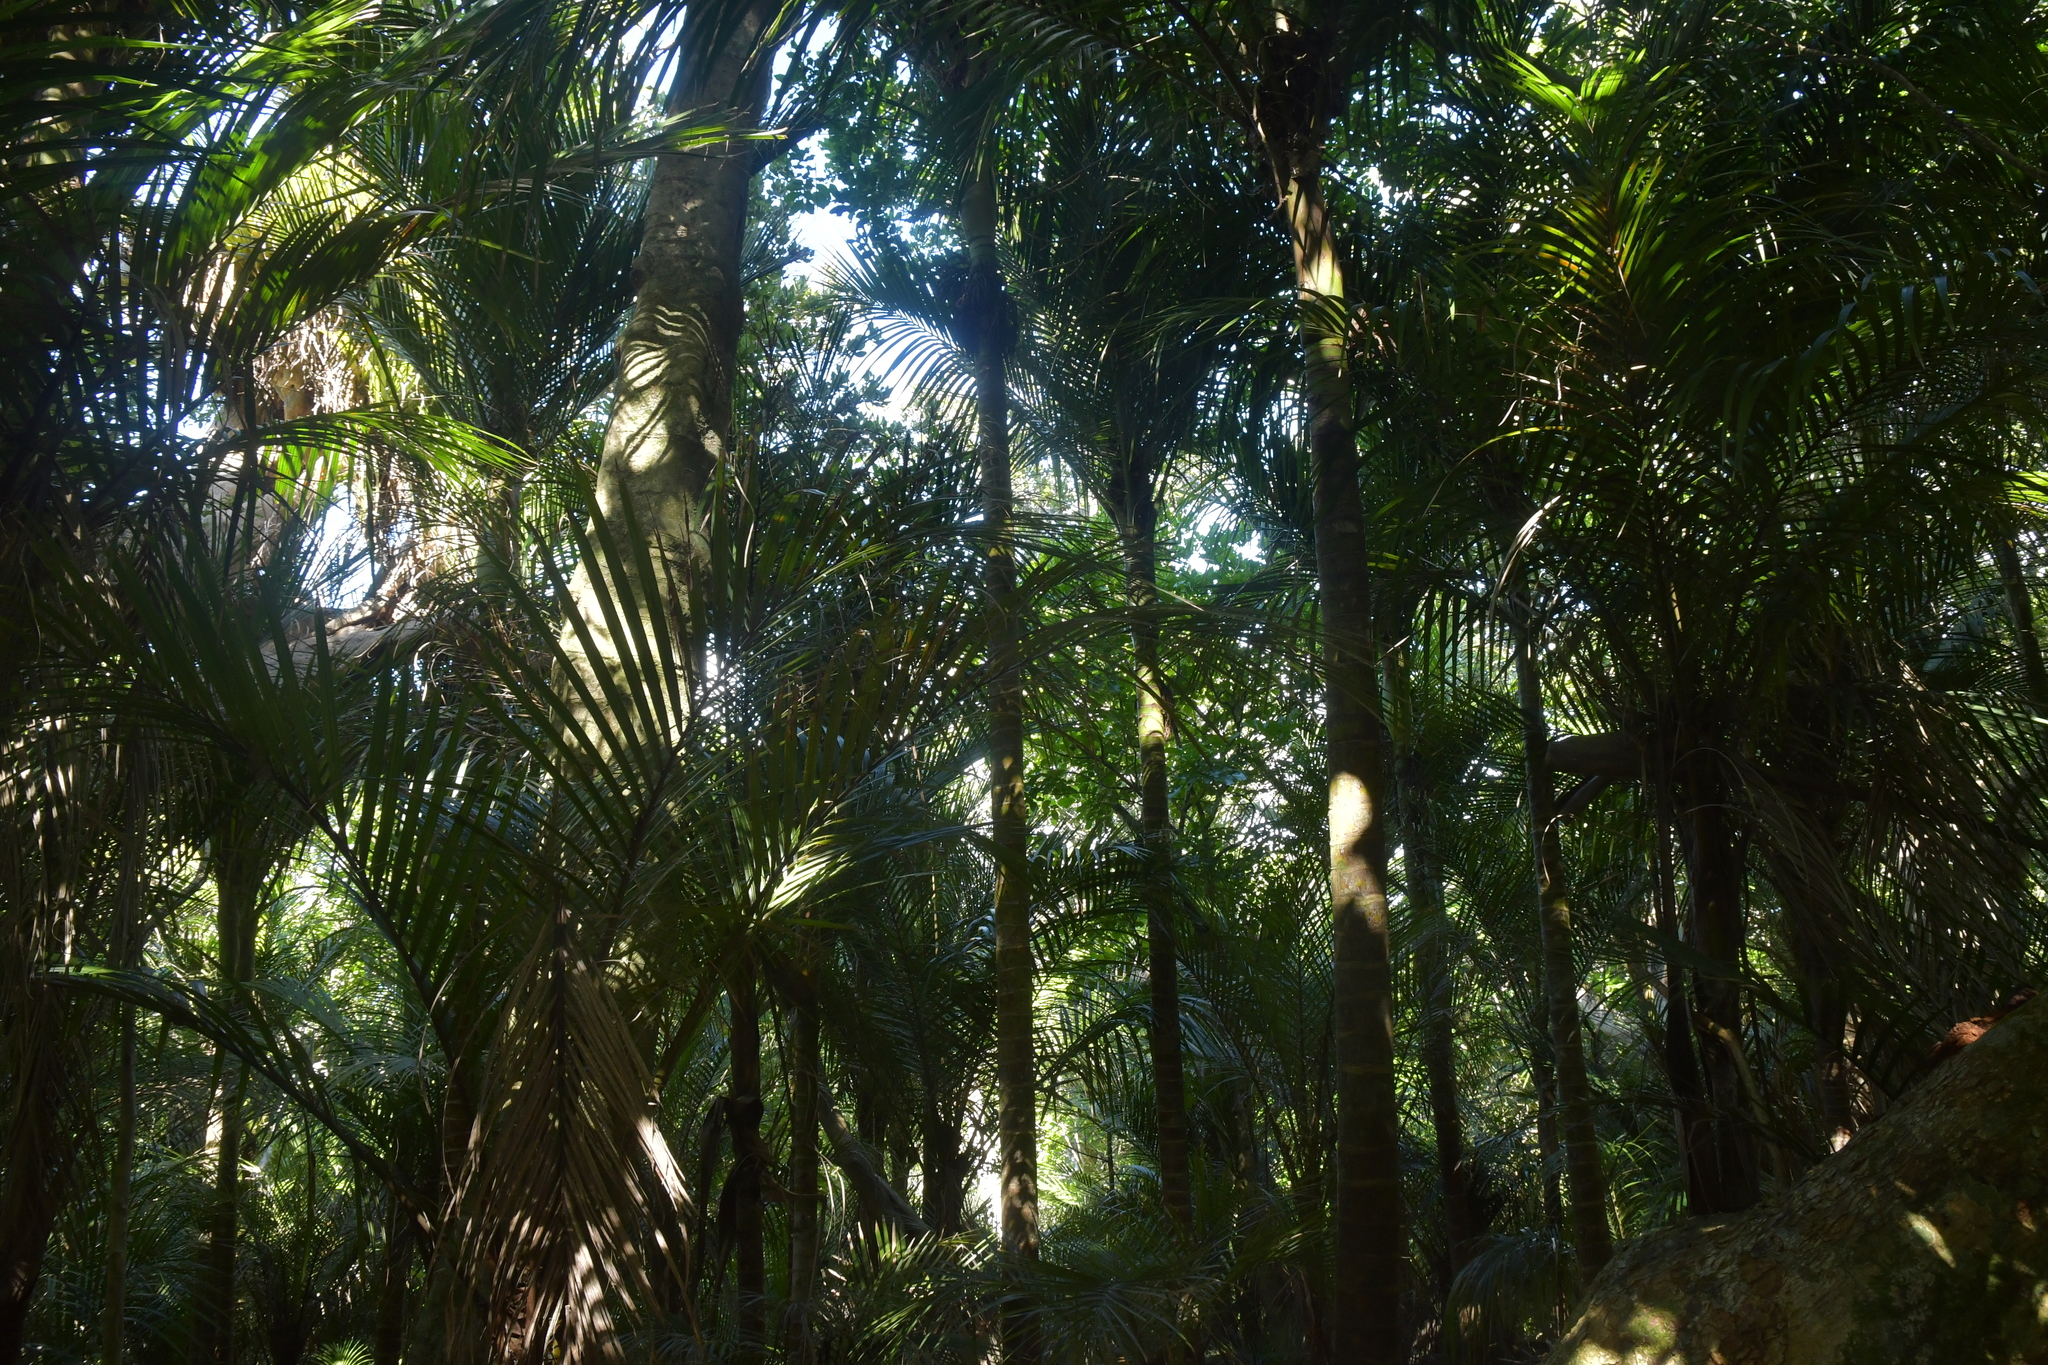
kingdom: Plantae
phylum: Tracheophyta
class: Liliopsida
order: Arecales
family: Arecaceae
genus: Rhopalostylis
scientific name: Rhopalostylis sapida
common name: Feather-duster palm
